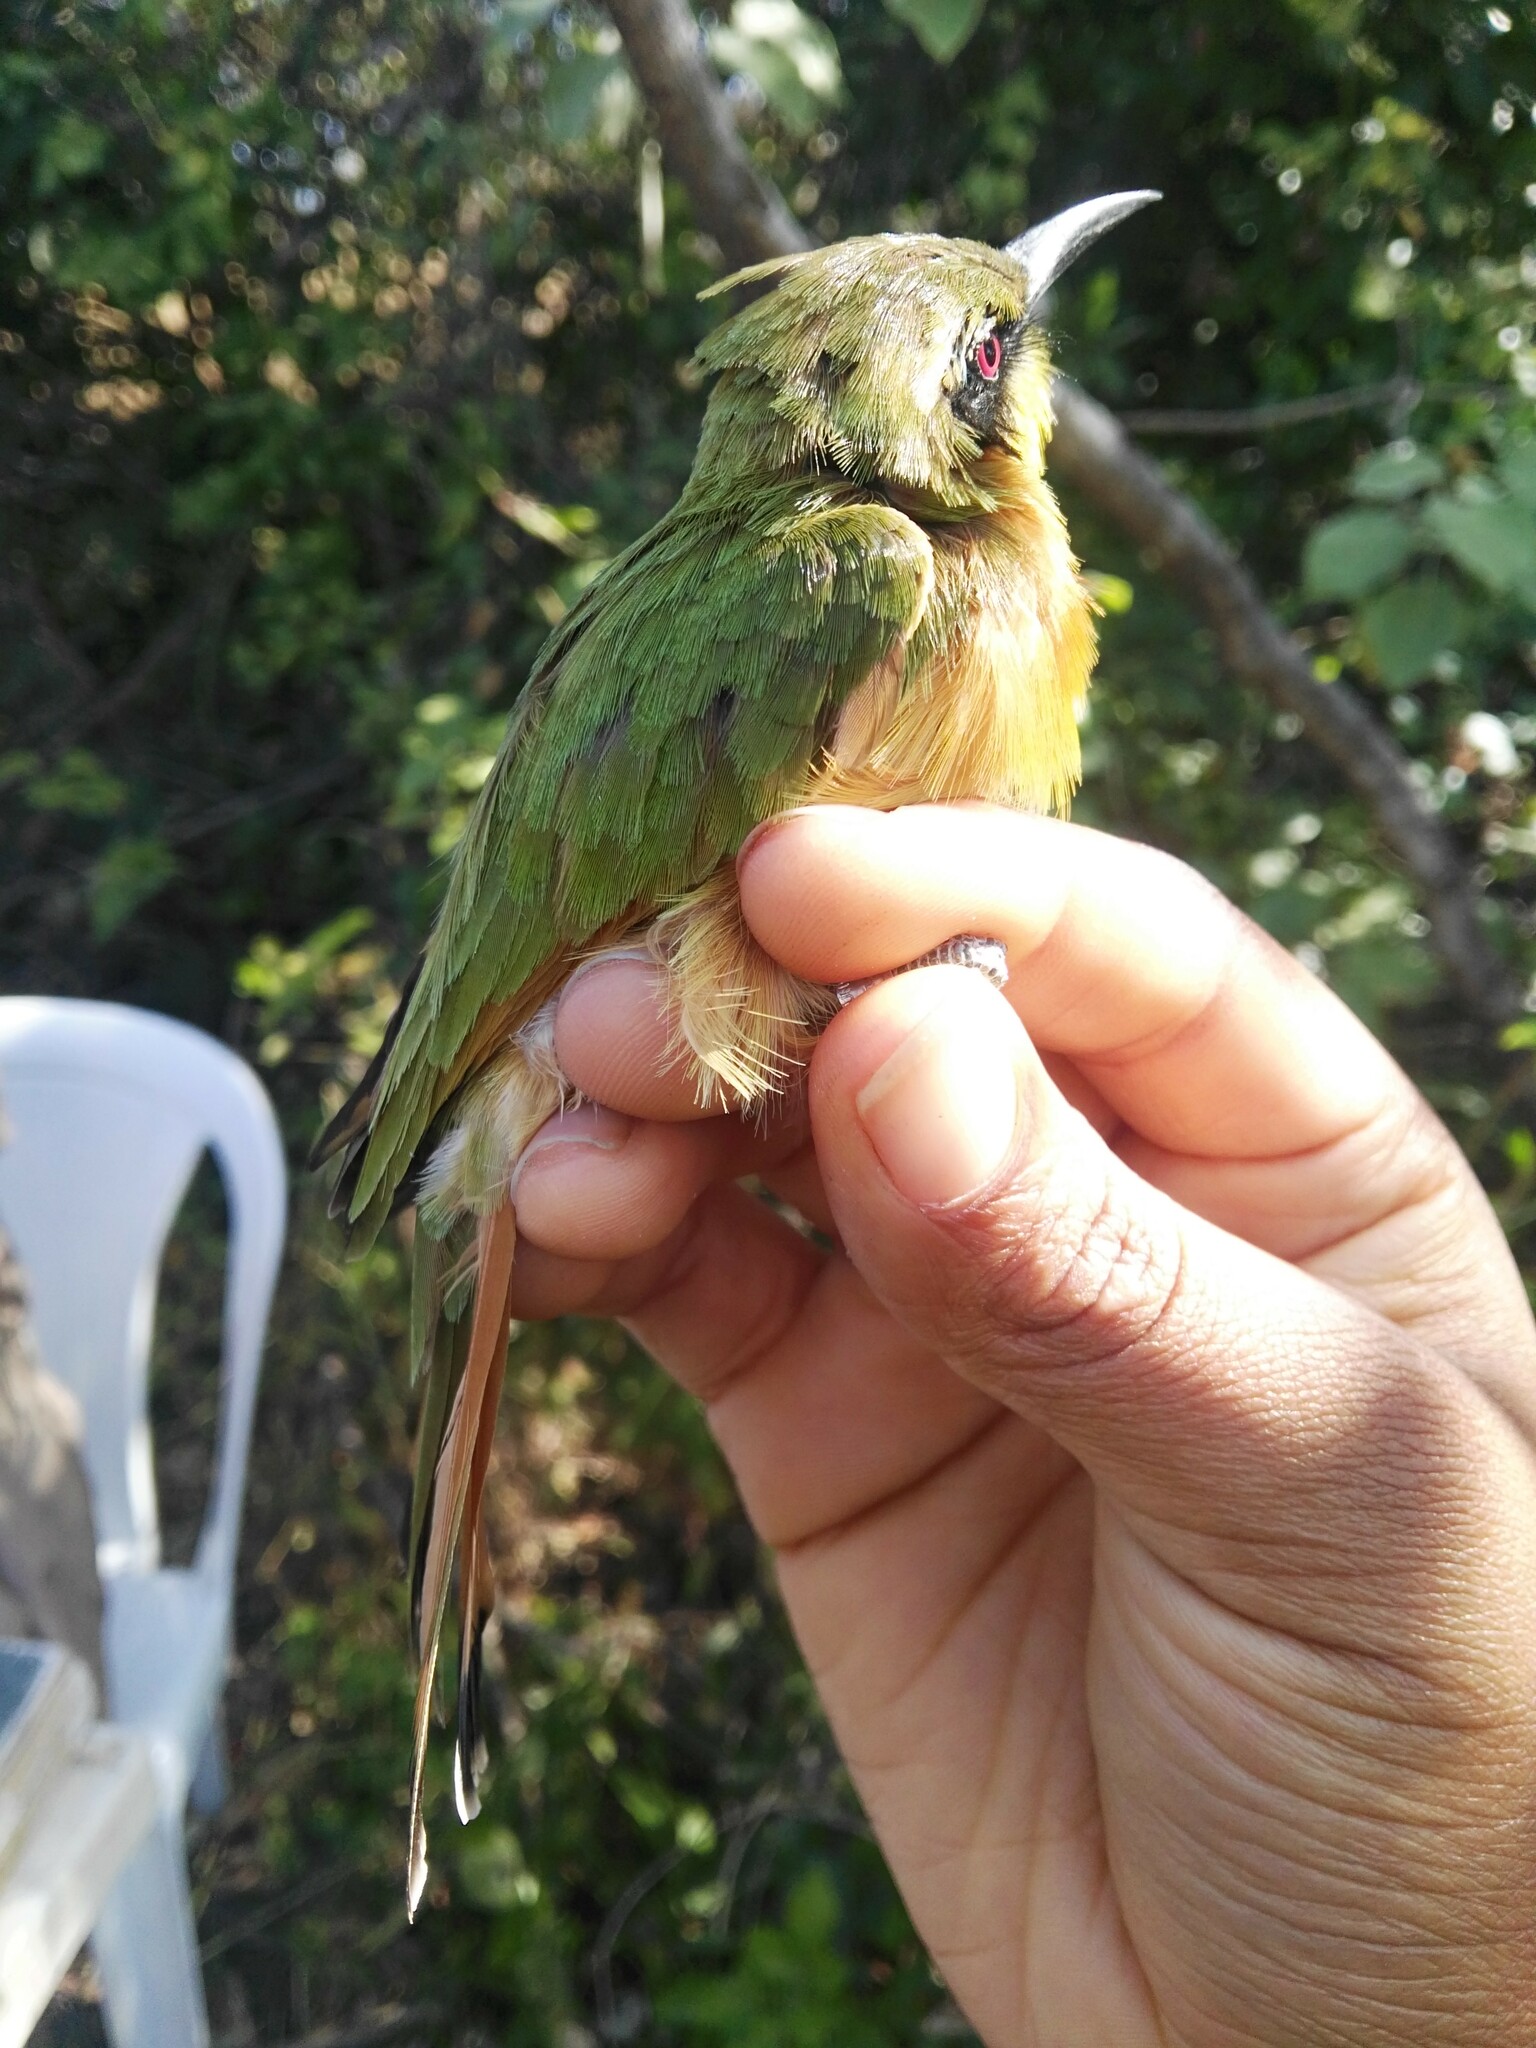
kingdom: Animalia
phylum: Chordata
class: Aves
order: Coraciiformes
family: Meropidae
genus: Merops
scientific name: Merops pusillus
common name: Little bee-eater
